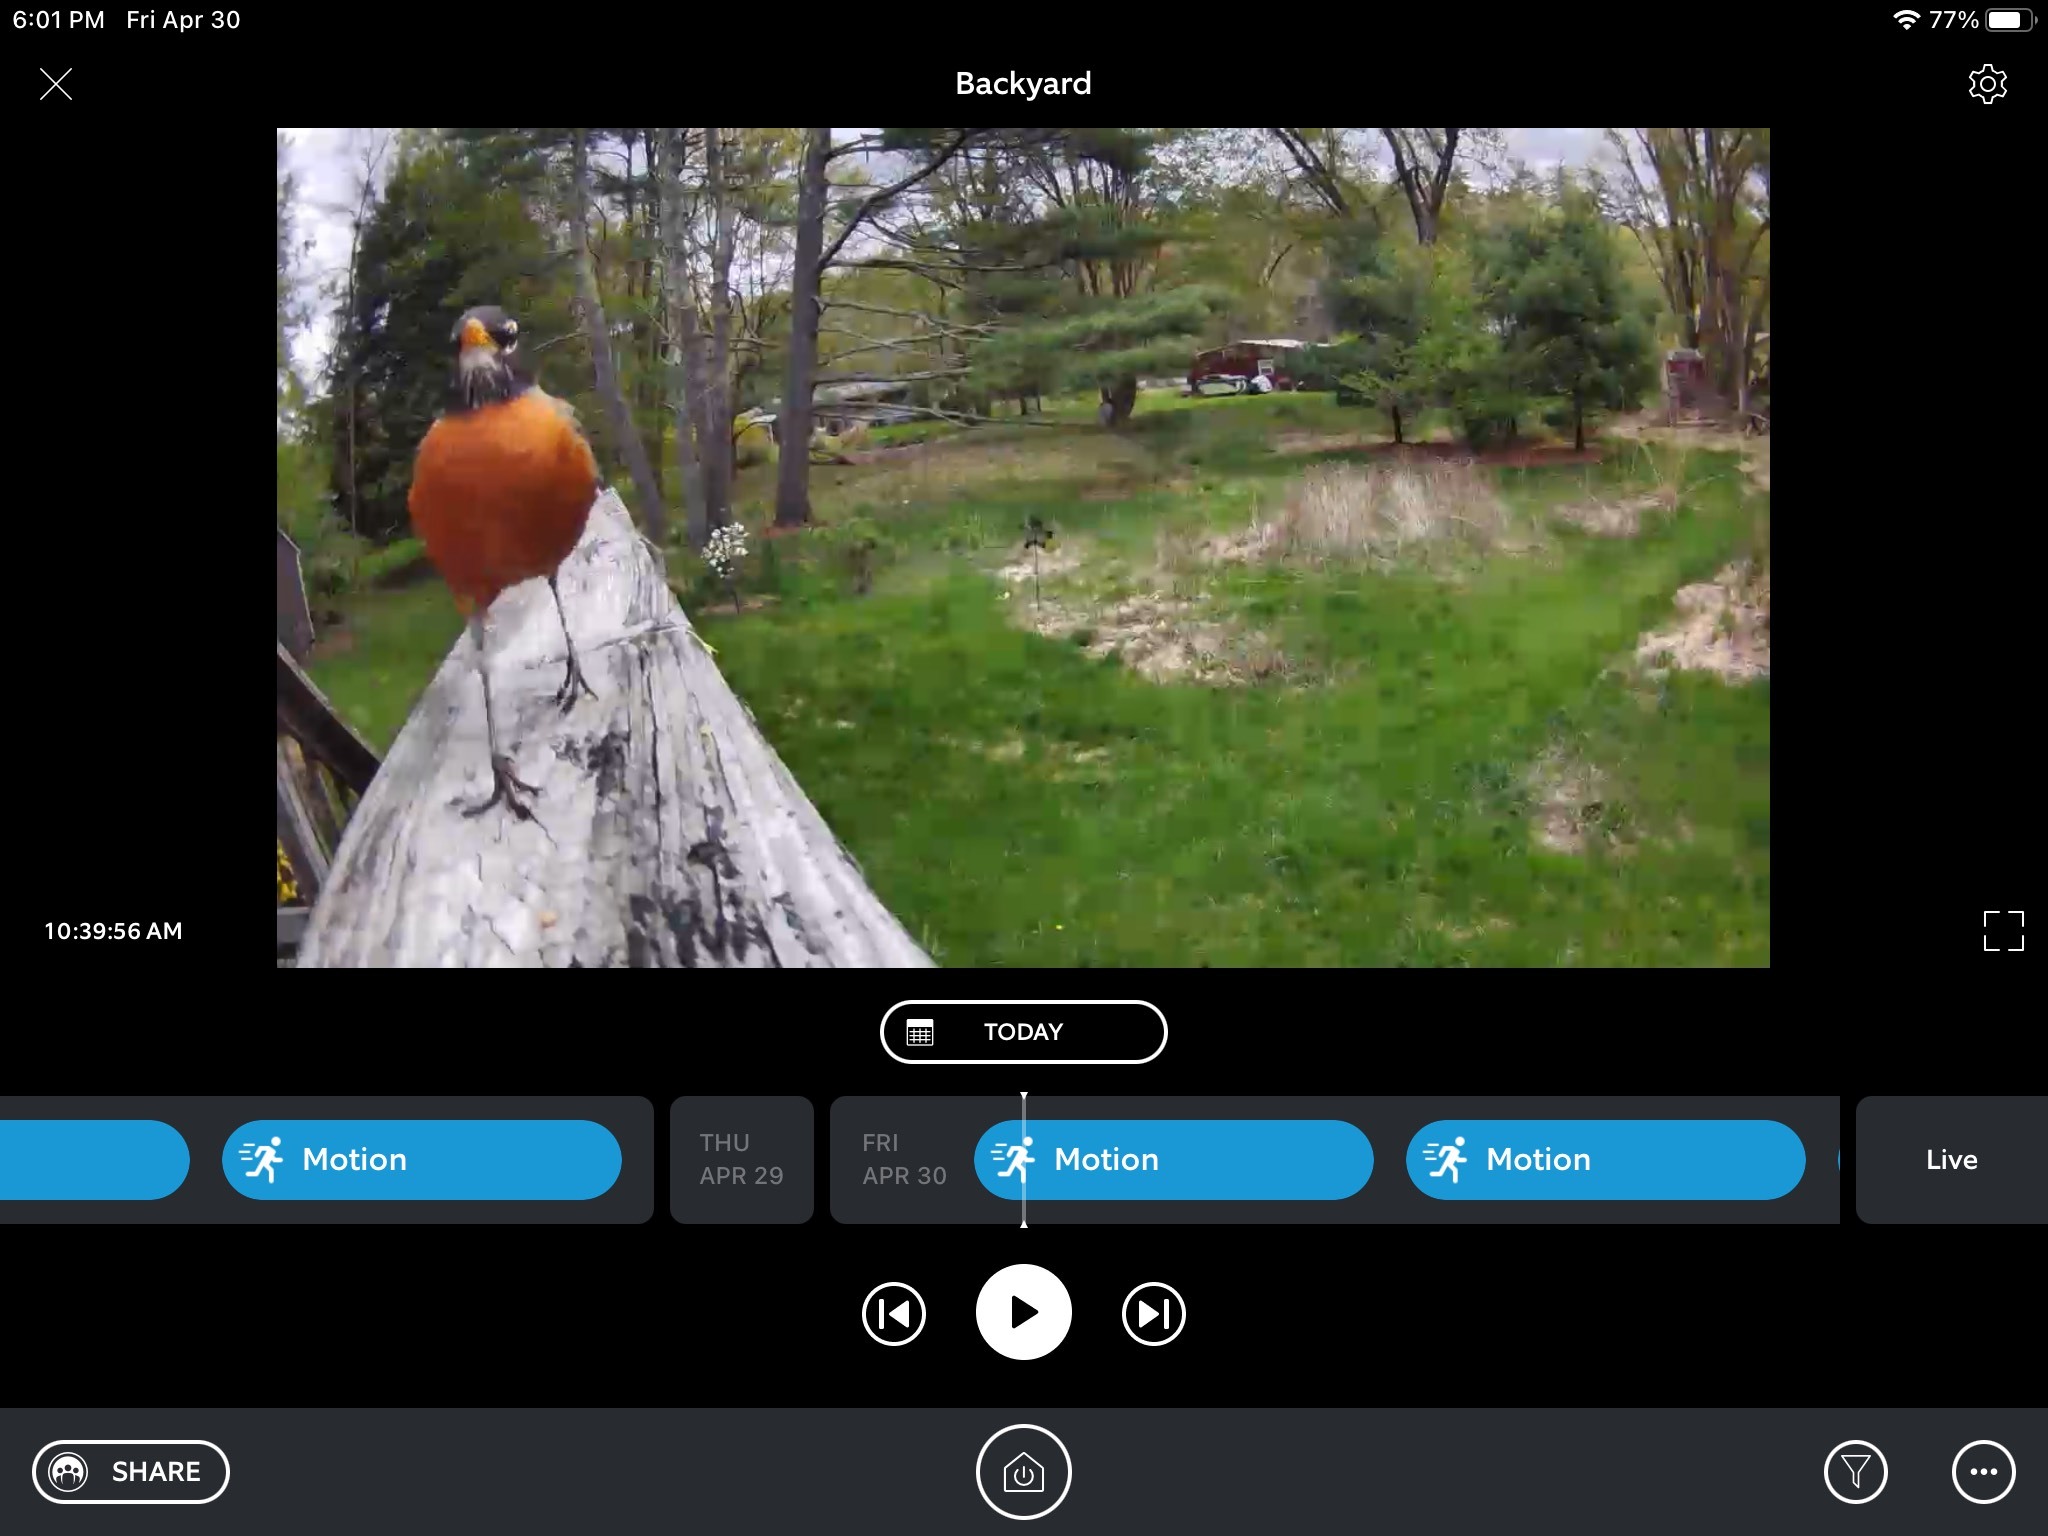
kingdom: Animalia
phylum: Chordata
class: Aves
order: Passeriformes
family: Turdidae
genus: Turdus
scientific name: Turdus migratorius
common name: American robin
